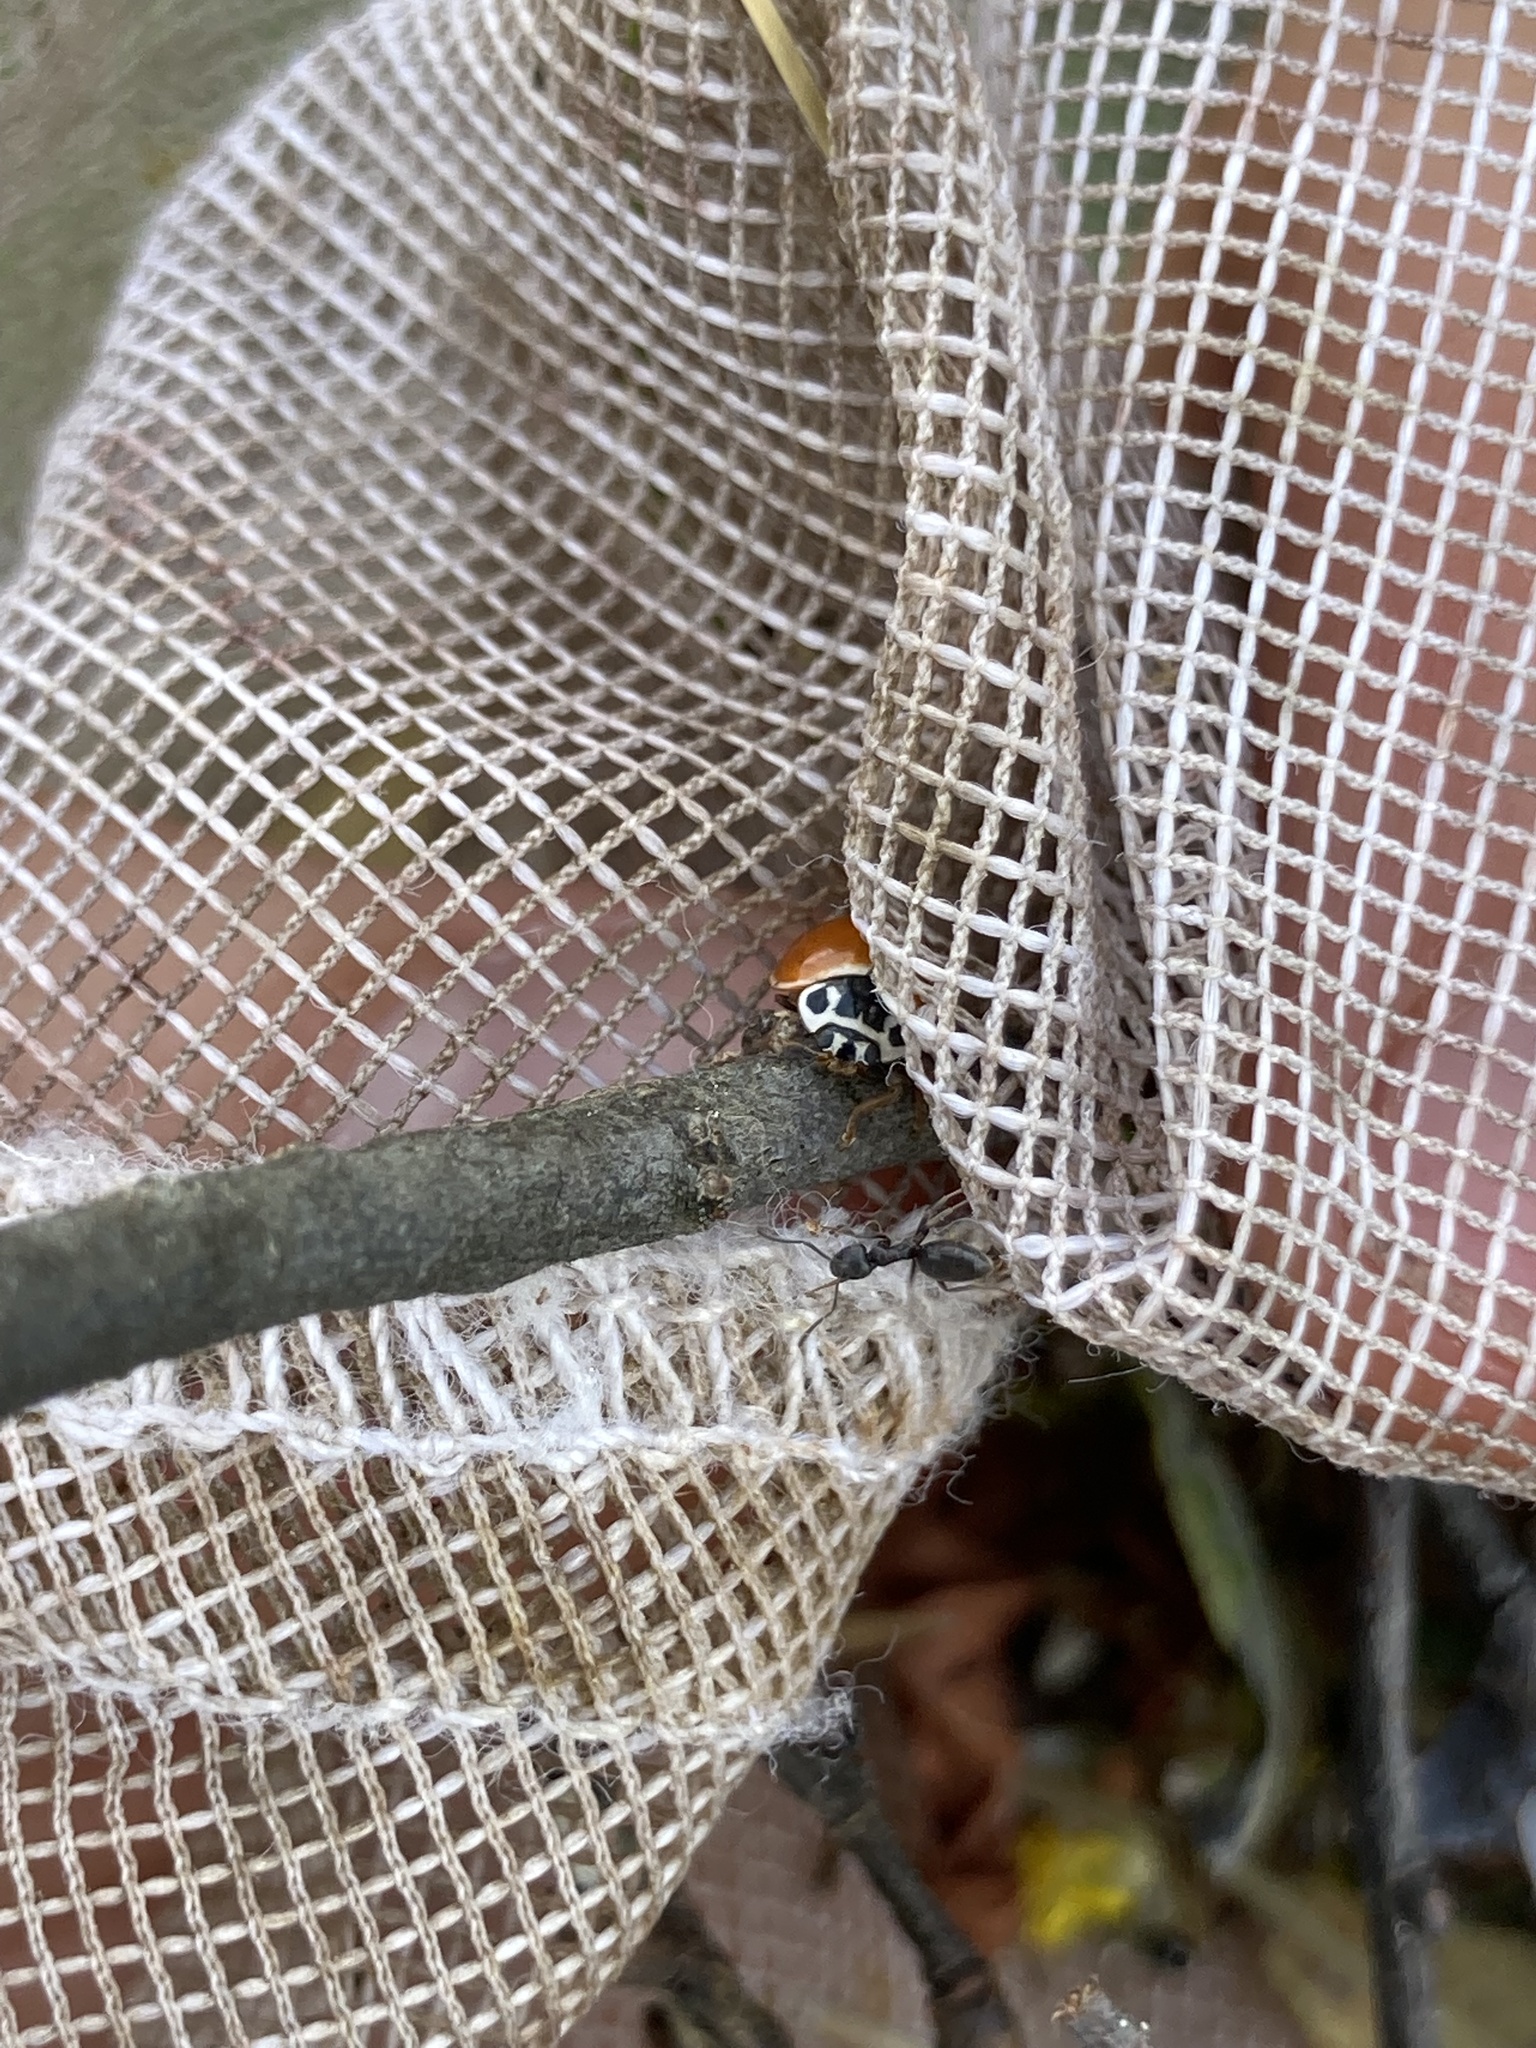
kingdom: Animalia
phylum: Arthropoda
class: Insecta
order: Coleoptera
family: Coccinellidae
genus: Cycloneda
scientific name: Cycloneda munda
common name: Polished lady beetle
